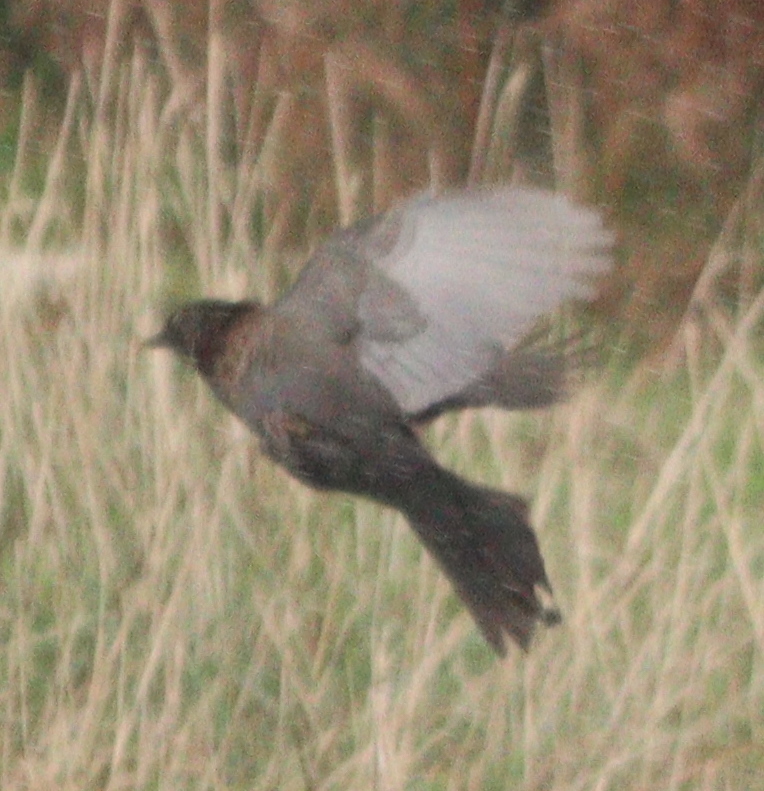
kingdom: Animalia
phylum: Chordata
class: Aves
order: Passeriformes
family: Turdidae
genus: Turdus
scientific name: Turdus merula
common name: Common blackbird
